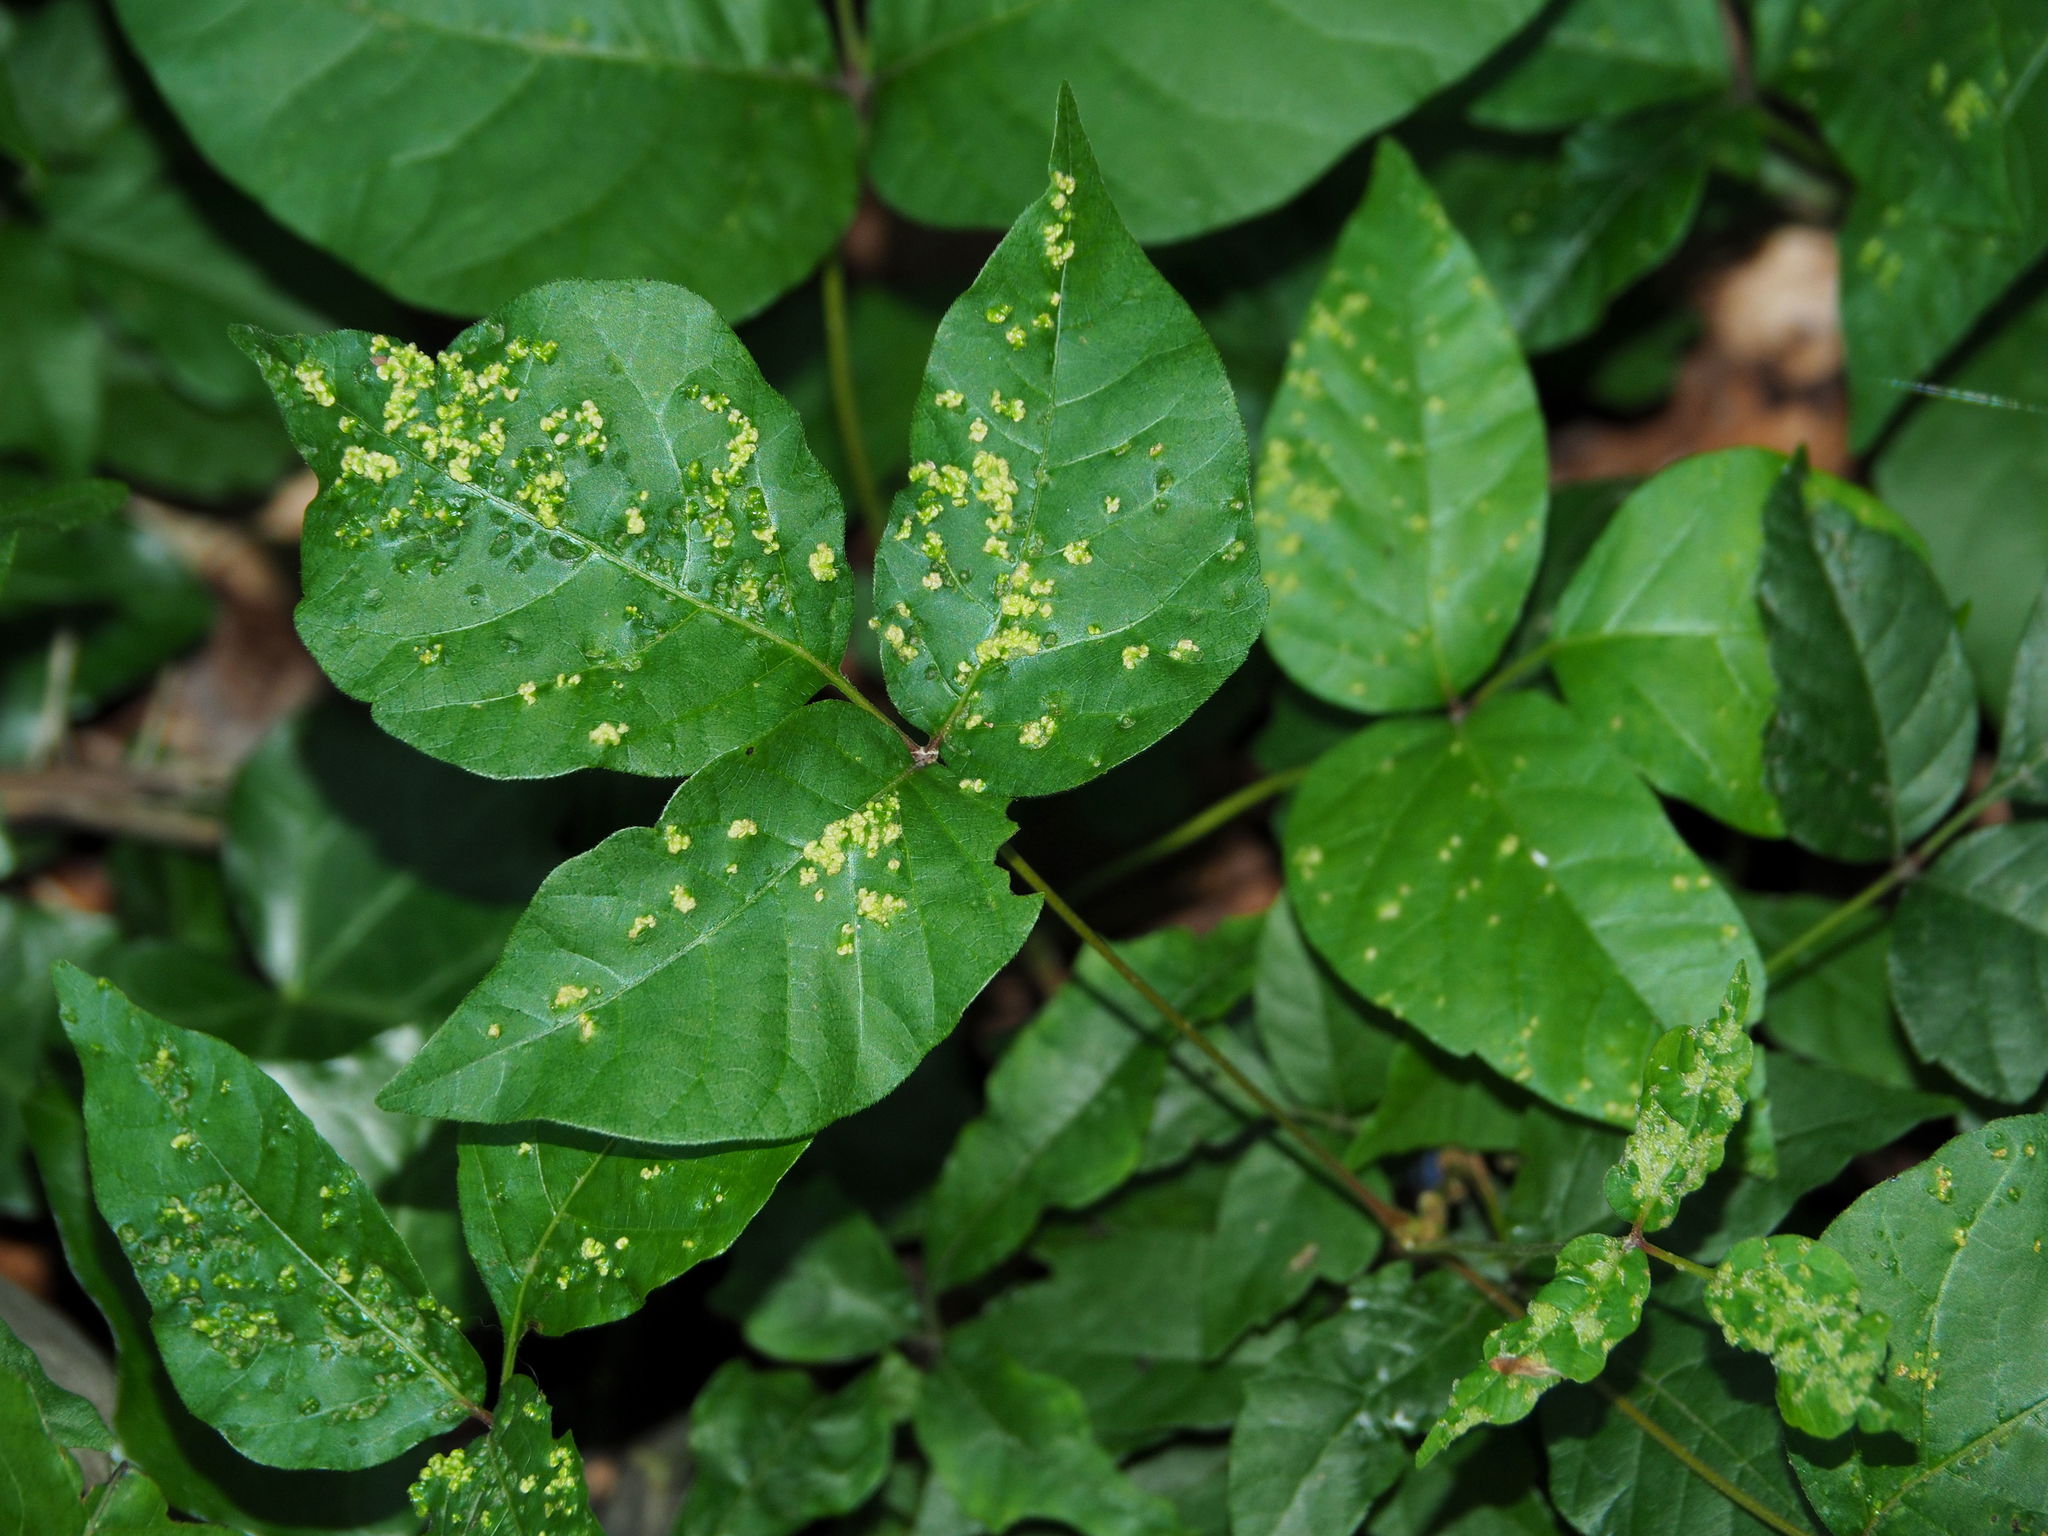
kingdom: Plantae
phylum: Tracheophyta
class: Magnoliopsida
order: Sapindales
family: Anacardiaceae
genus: Toxicodendron
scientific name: Toxicodendron radicans
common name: Poison ivy
